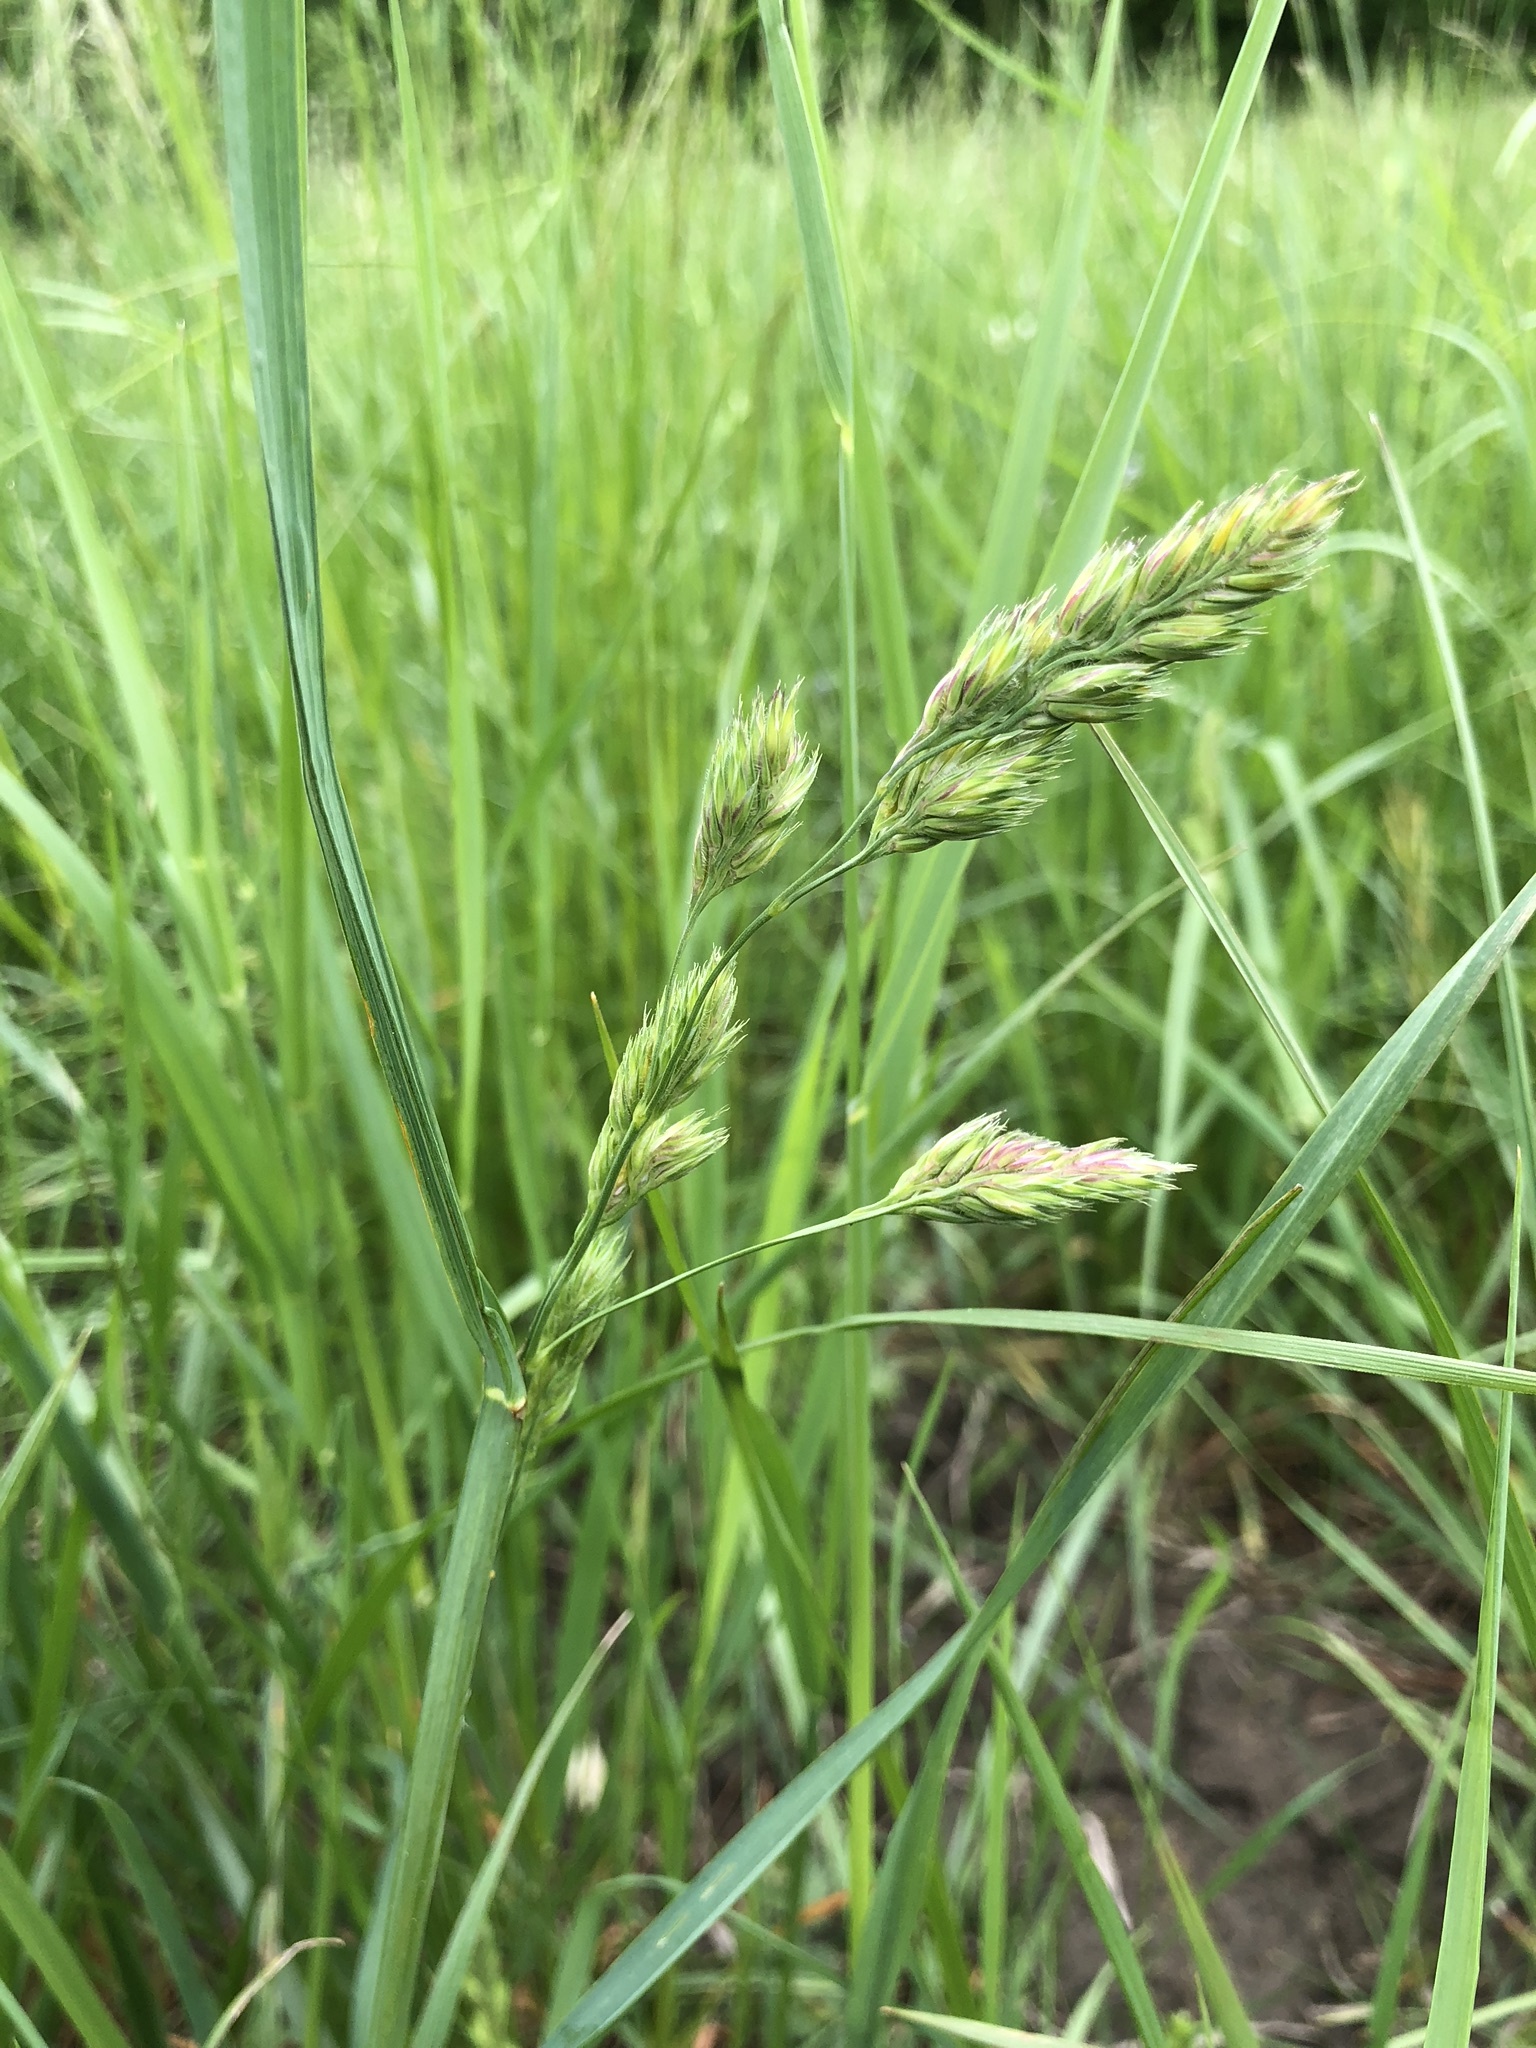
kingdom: Plantae
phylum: Tracheophyta
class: Liliopsida
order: Poales
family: Poaceae
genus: Dactylis
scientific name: Dactylis glomerata
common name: Orchardgrass
